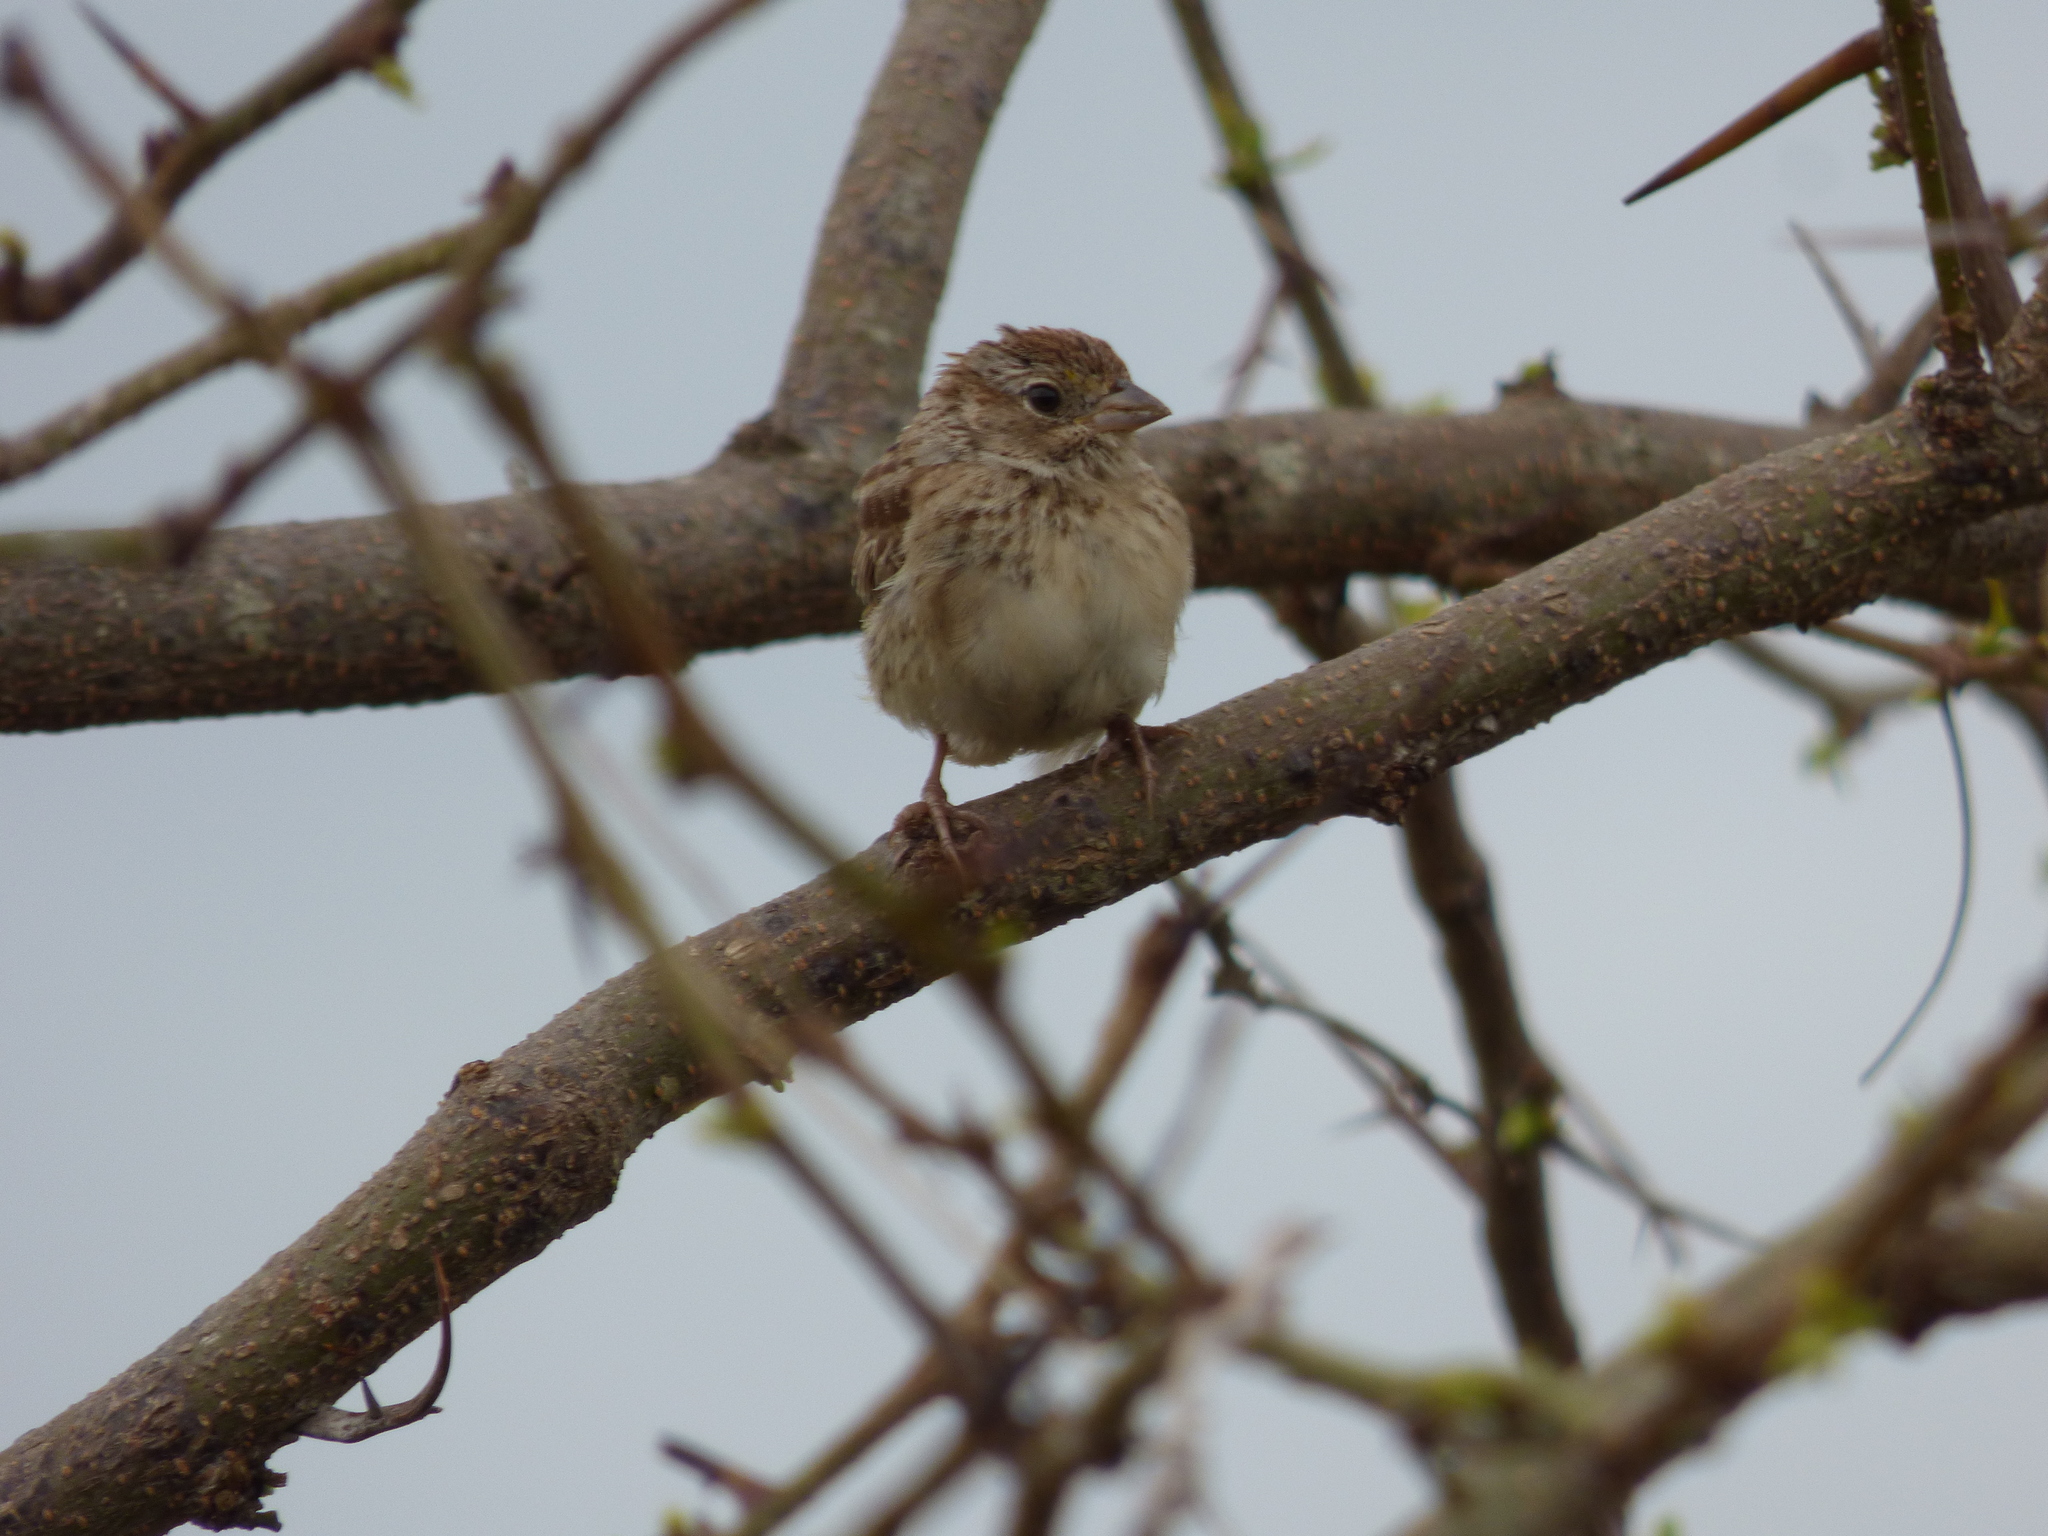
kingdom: Animalia
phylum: Chordata
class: Aves
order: Passeriformes
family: Passerellidae
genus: Ammodramus
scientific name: Ammodramus humeralis
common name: Grassland sparrow
